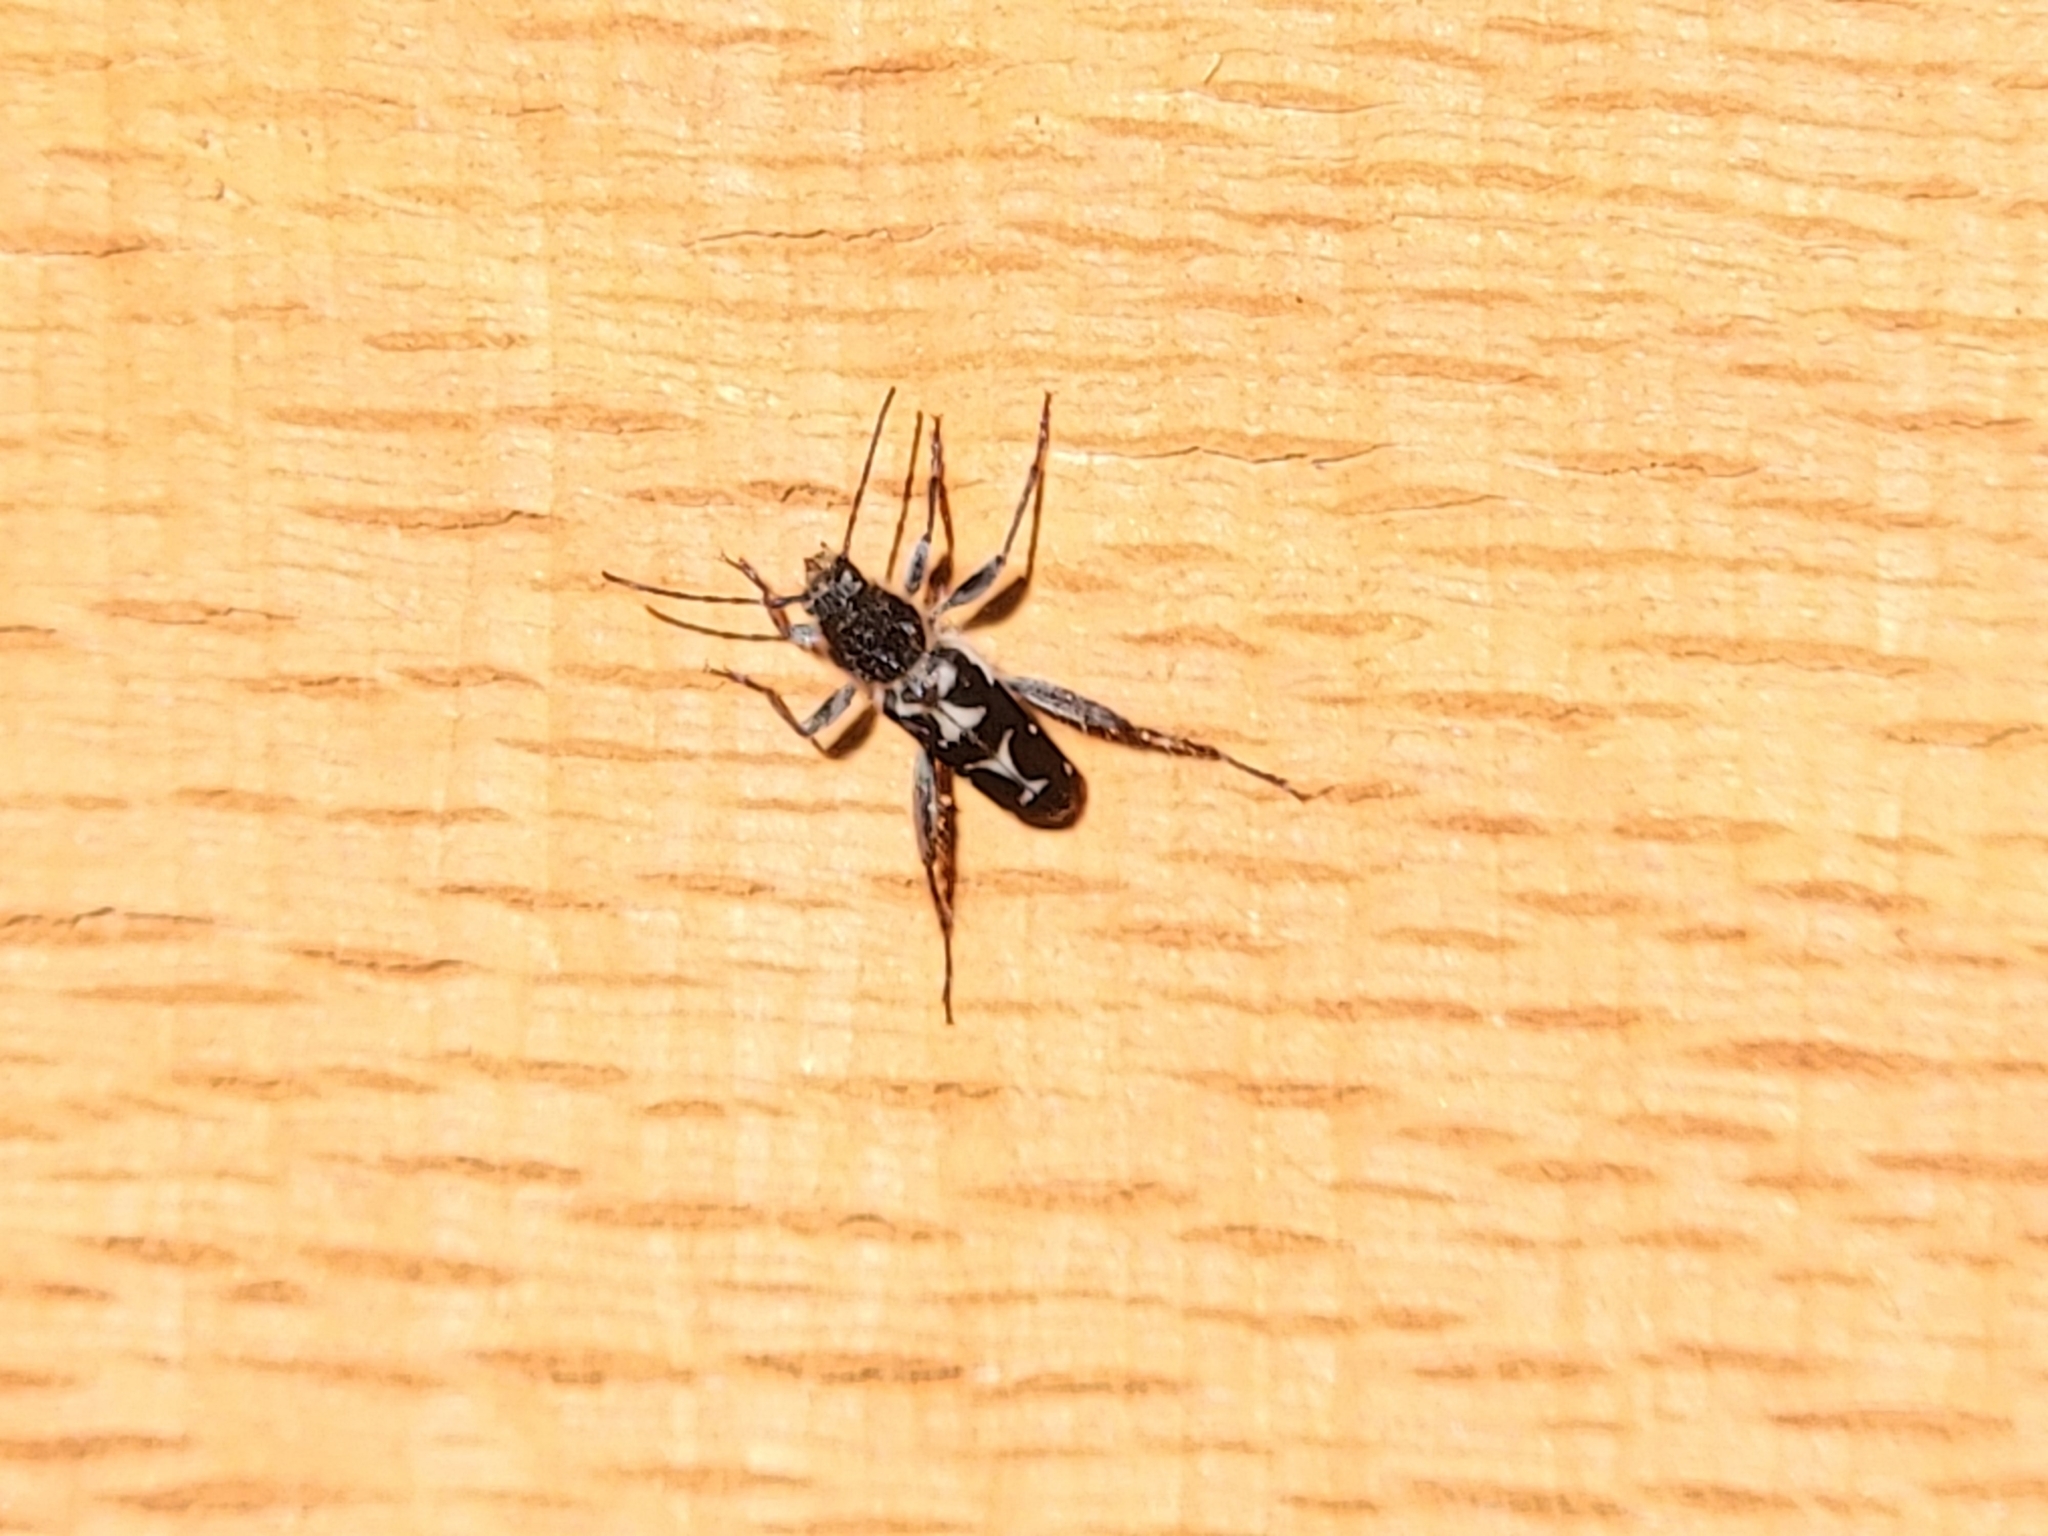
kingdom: Animalia
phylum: Arthropoda
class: Insecta
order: Coleoptera
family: Cerambycidae
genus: Neoclytus
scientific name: Neoclytus conjunctus
